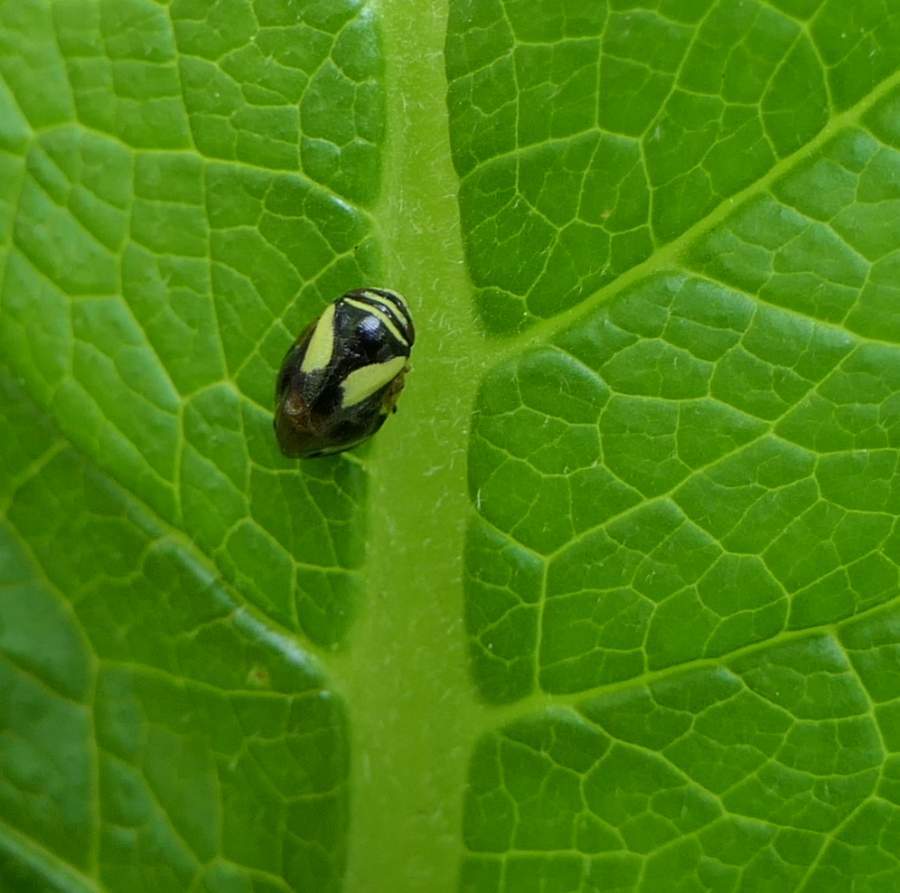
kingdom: Animalia
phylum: Arthropoda
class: Insecta
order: Hemiptera
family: Clastopteridae
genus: Clastoptera
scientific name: Clastoptera proteus
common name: Dogwood spittlebug
